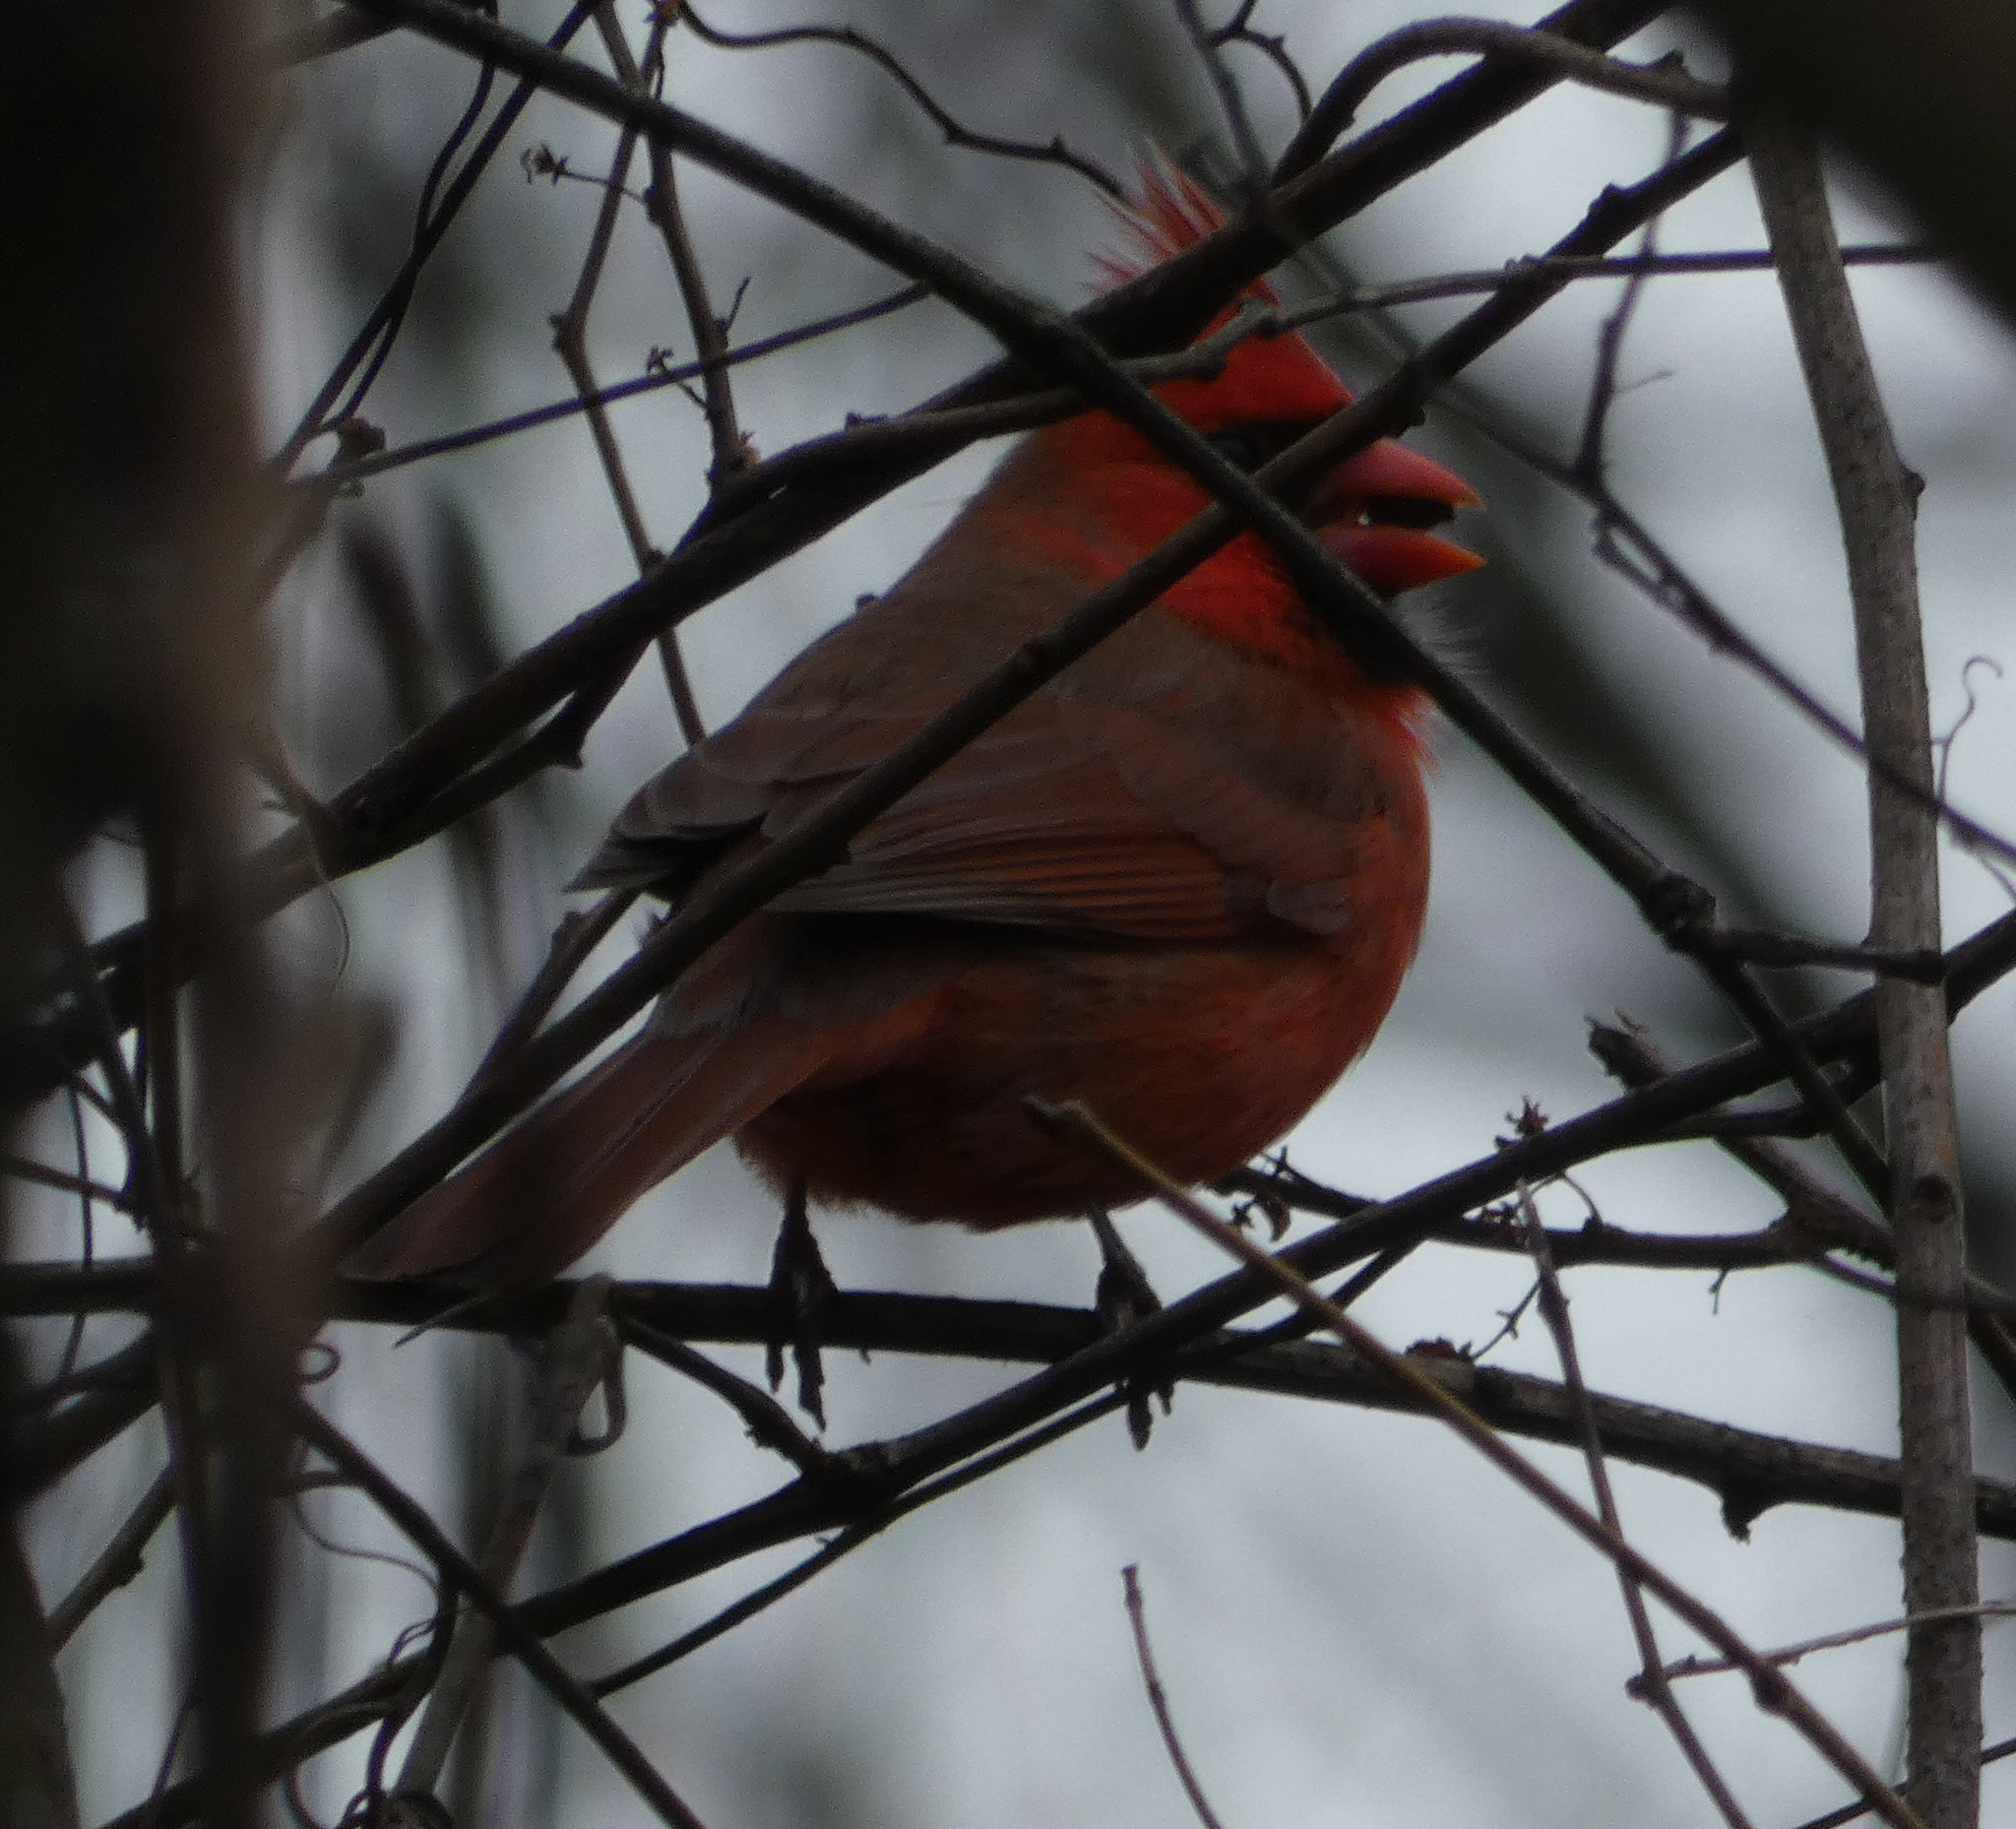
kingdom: Animalia
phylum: Chordata
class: Aves
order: Passeriformes
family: Cardinalidae
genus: Cardinalis
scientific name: Cardinalis cardinalis
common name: Northern cardinal
